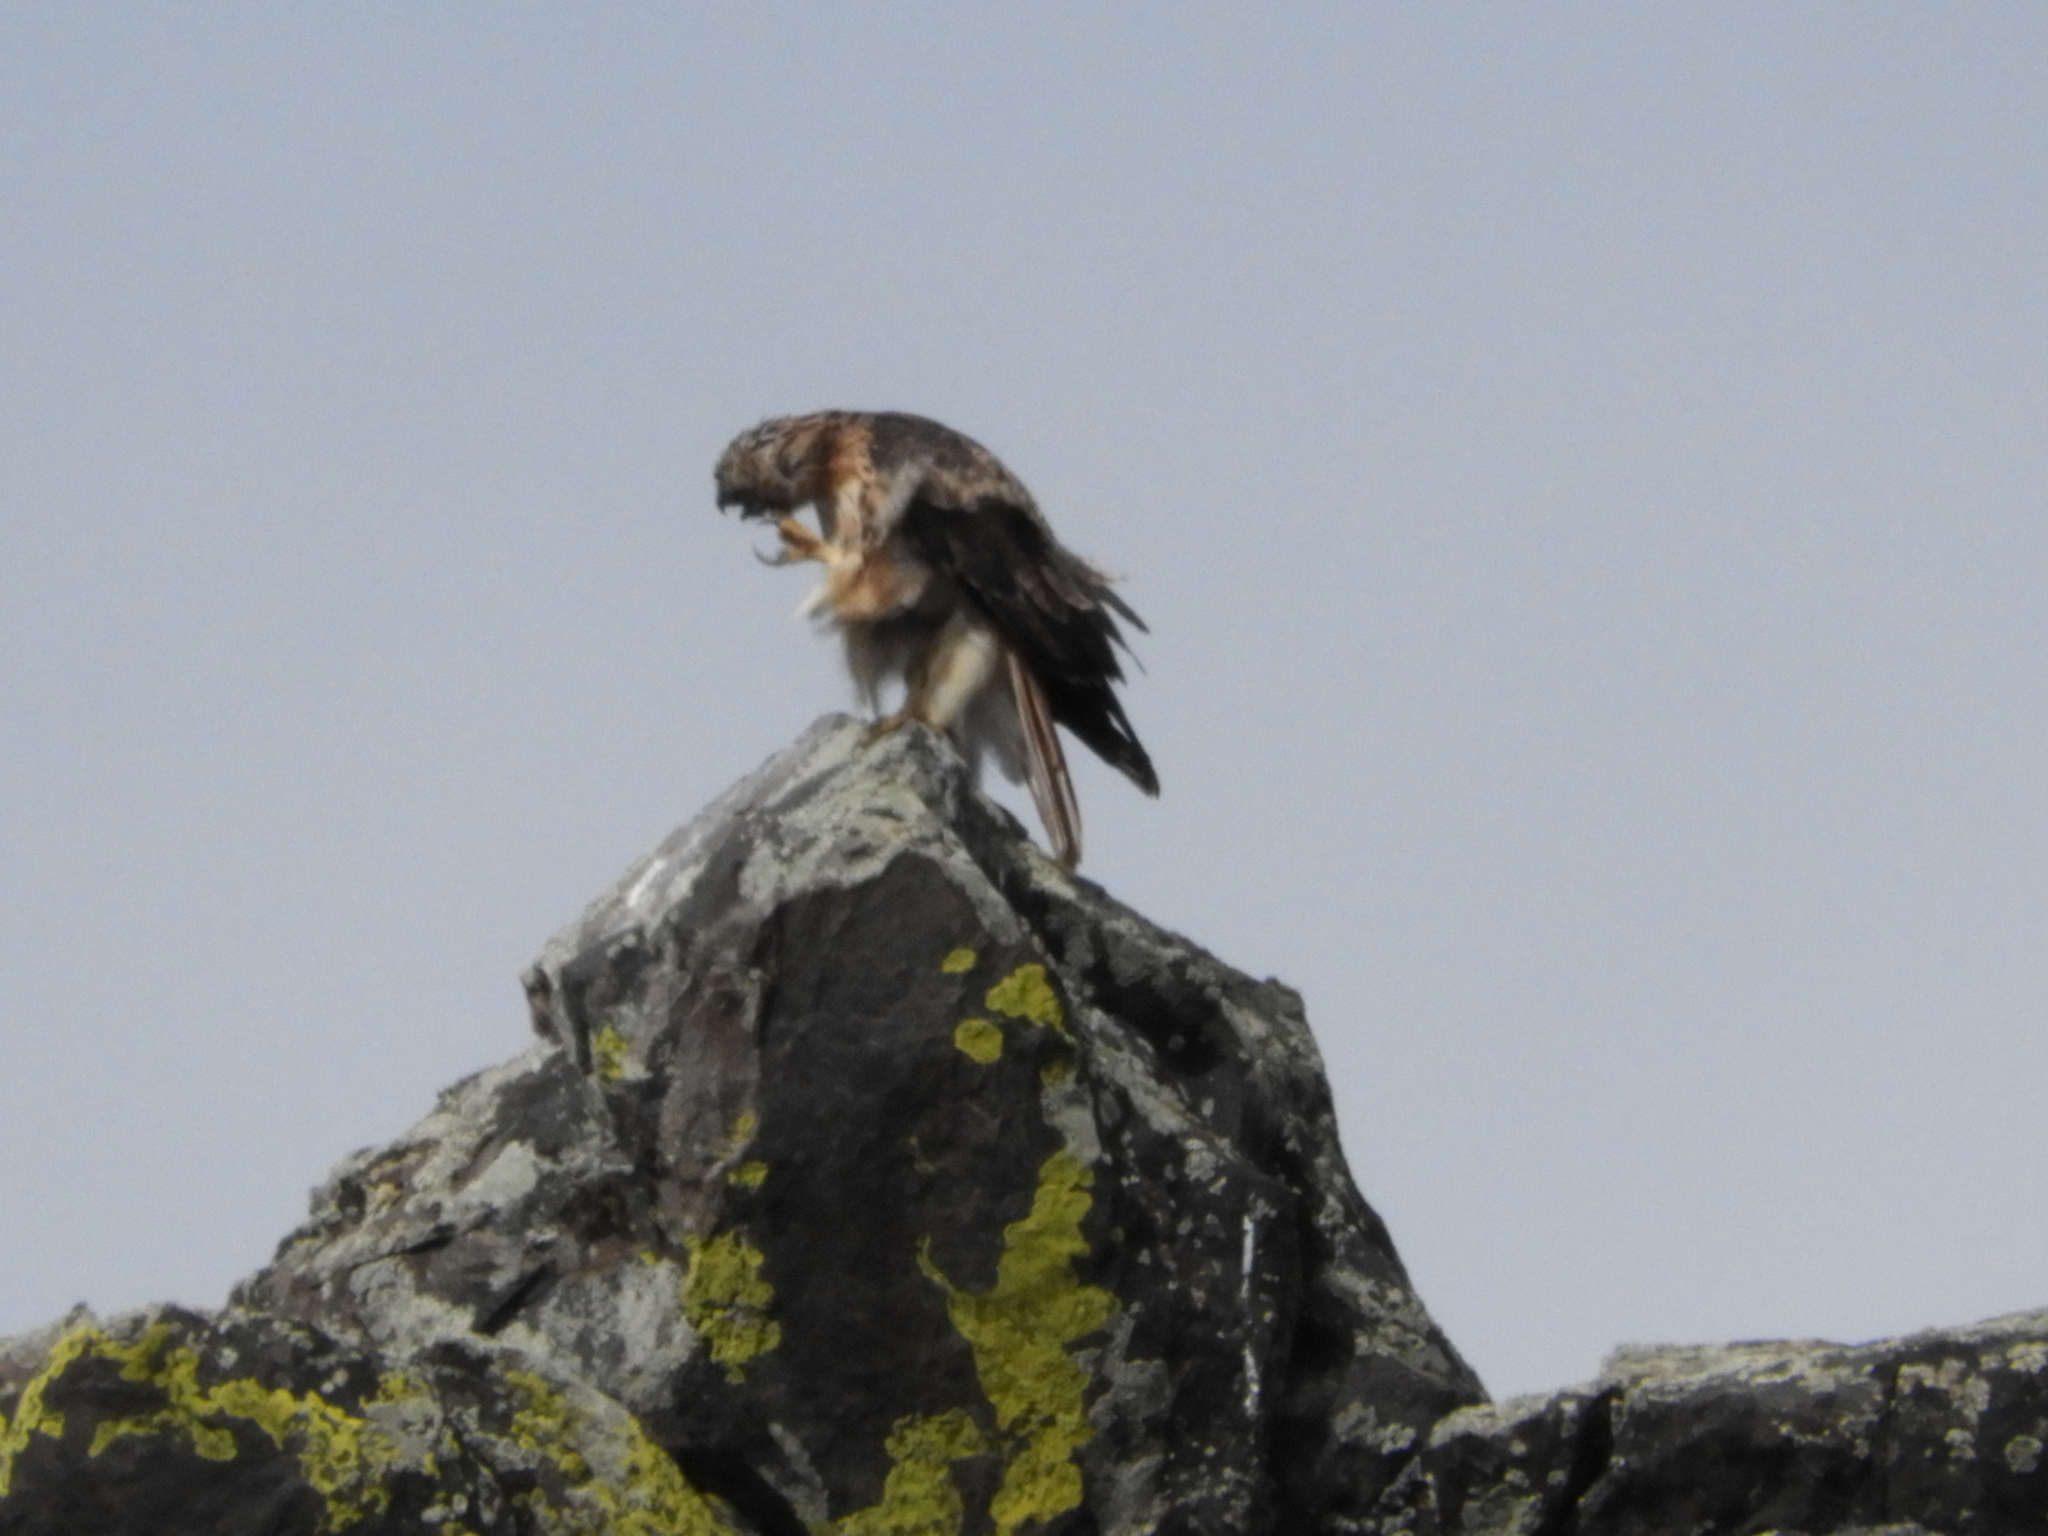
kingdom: Animalia
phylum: Chordata
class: Aves
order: Accipitriformes
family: Accipitridae
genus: Buteo
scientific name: Buteo jamaicensis
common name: Red-tailed hawk
